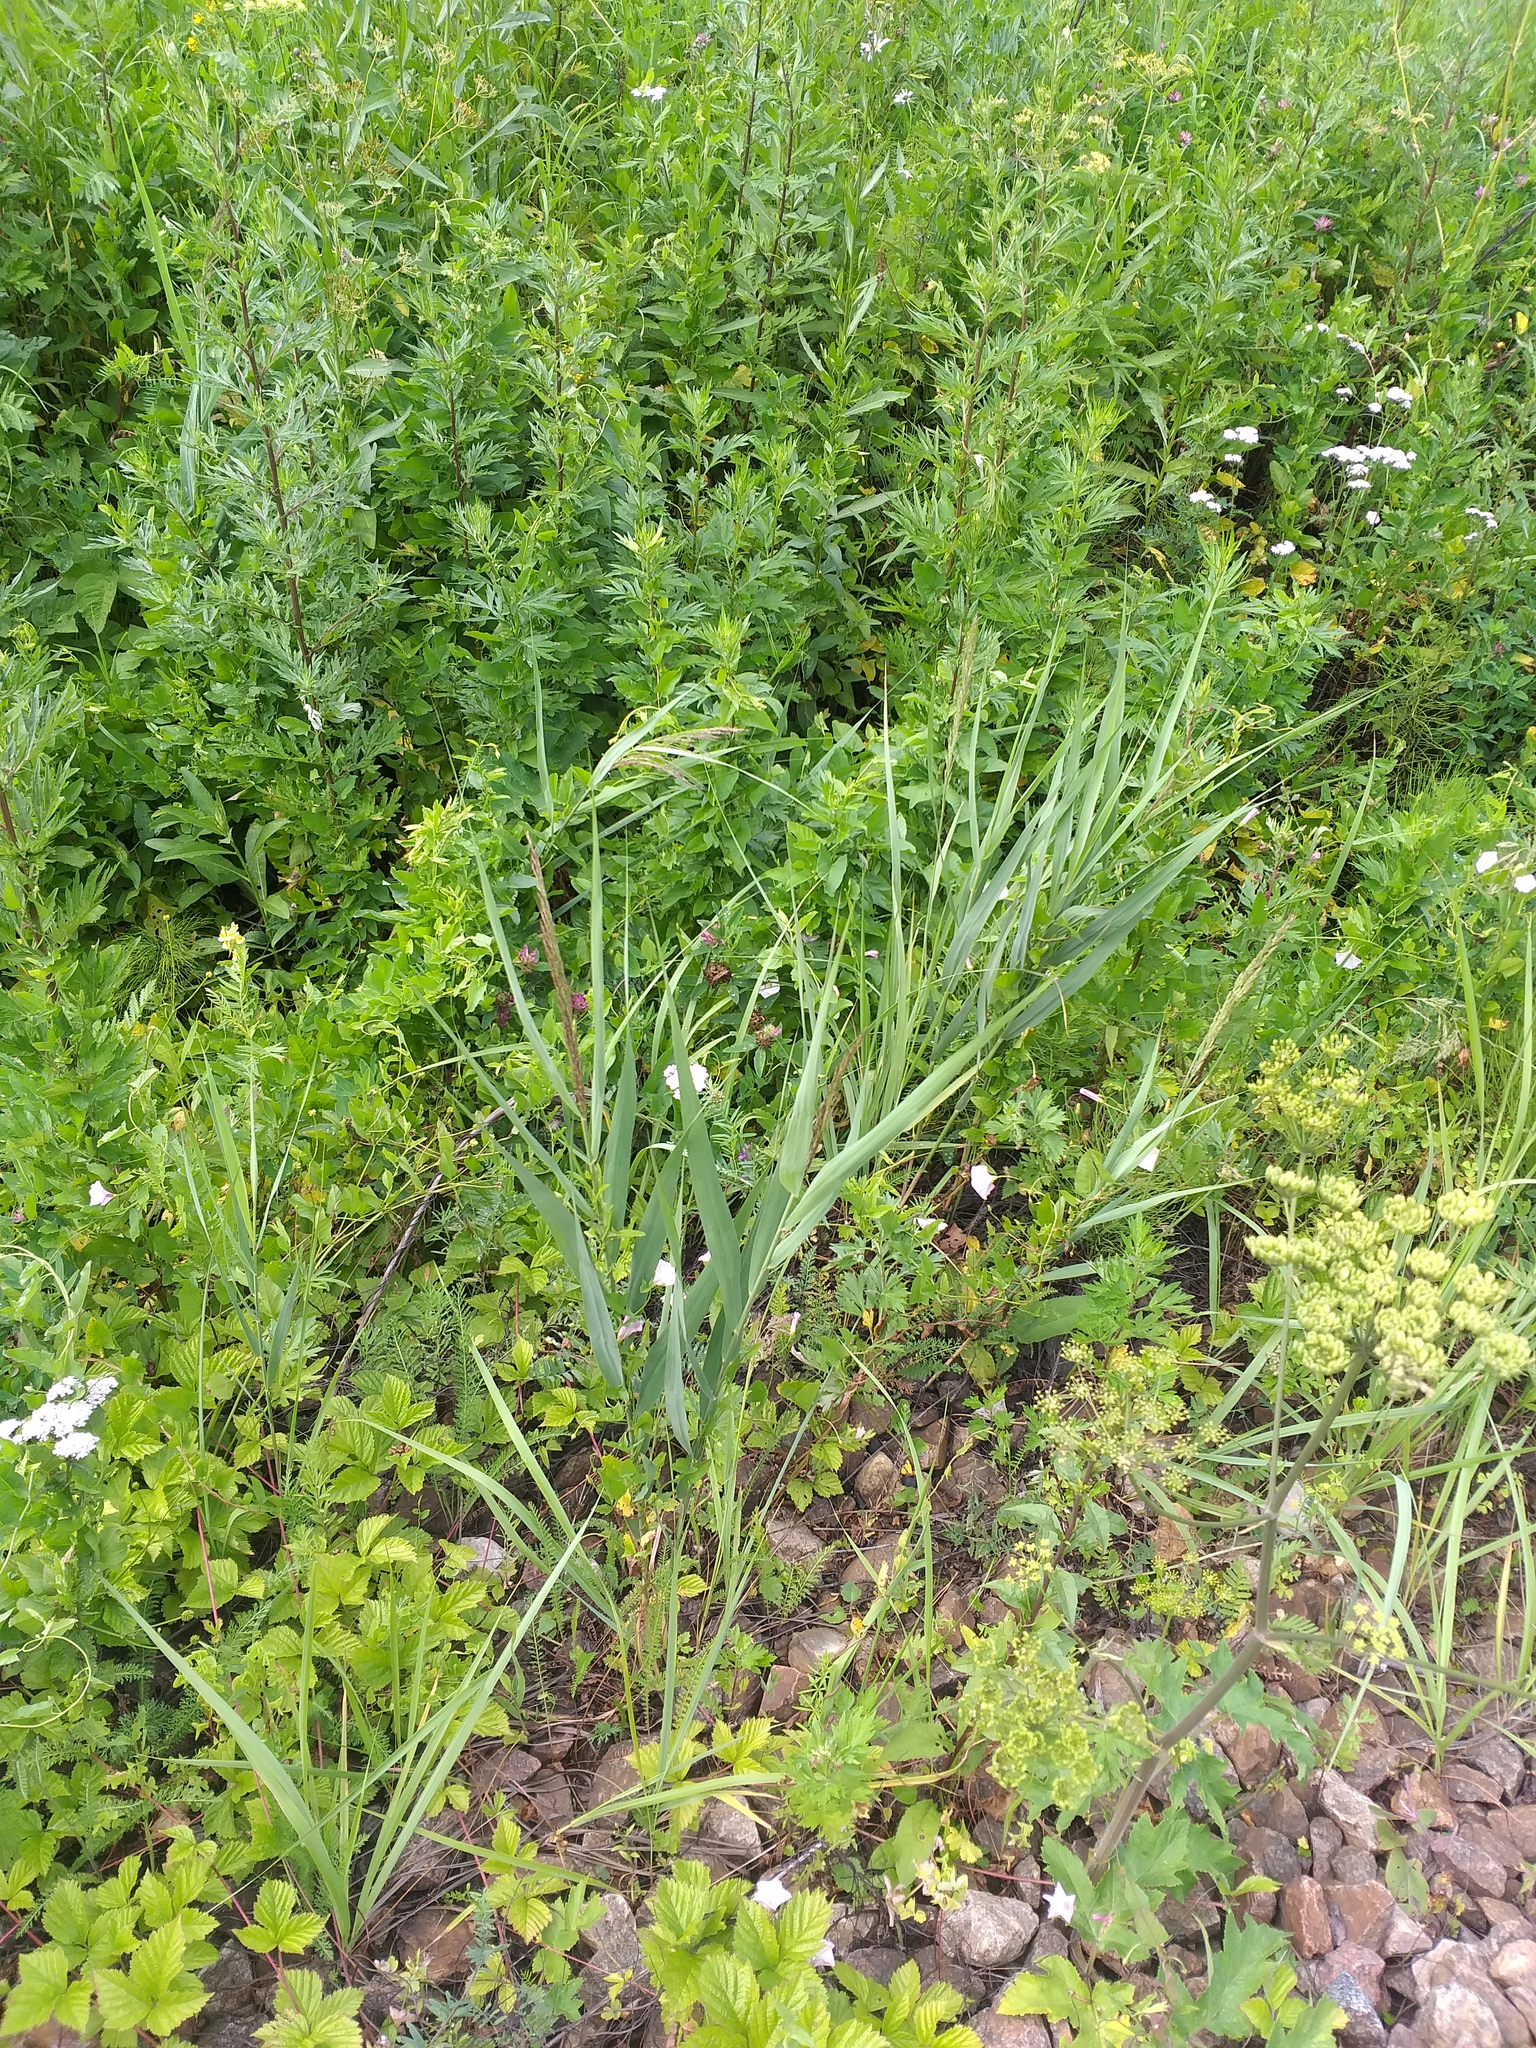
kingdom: Plantae
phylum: Tracheophyta
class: Liliopsida
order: Poales
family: Poaceae
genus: Phragmites
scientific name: Phragmites australis
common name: Common reed
